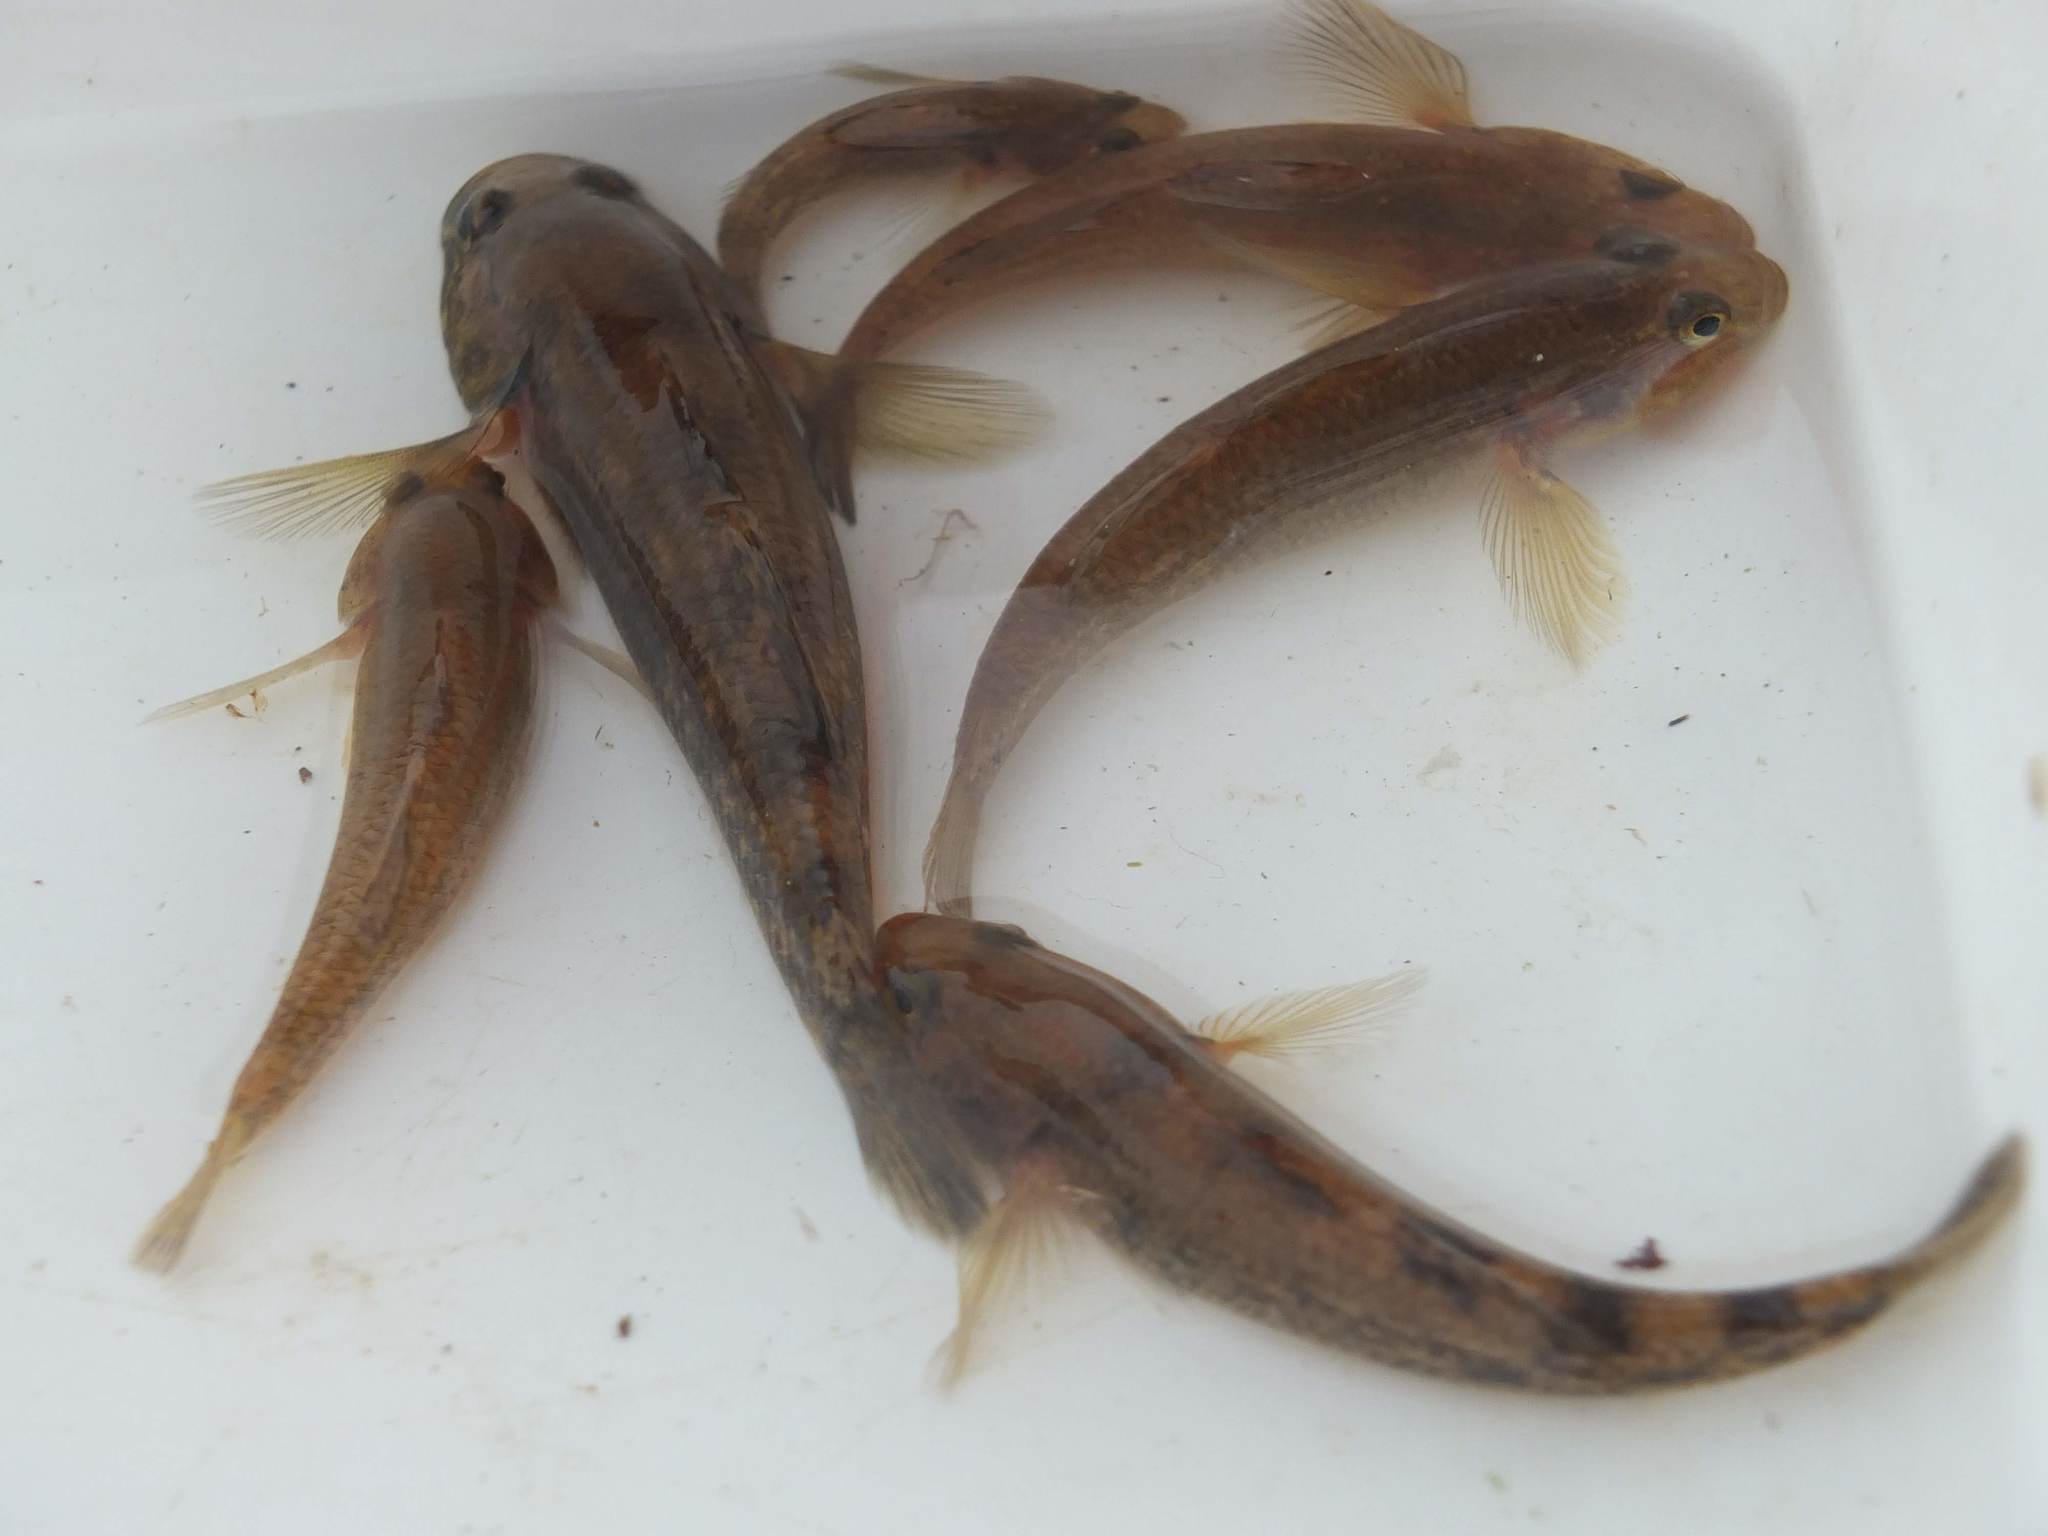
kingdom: Animalia
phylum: Chordata
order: Perciformes
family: Eleotridae
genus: Gobiomorphus
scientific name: Gobiomorphus cotidianus
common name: Common bully
